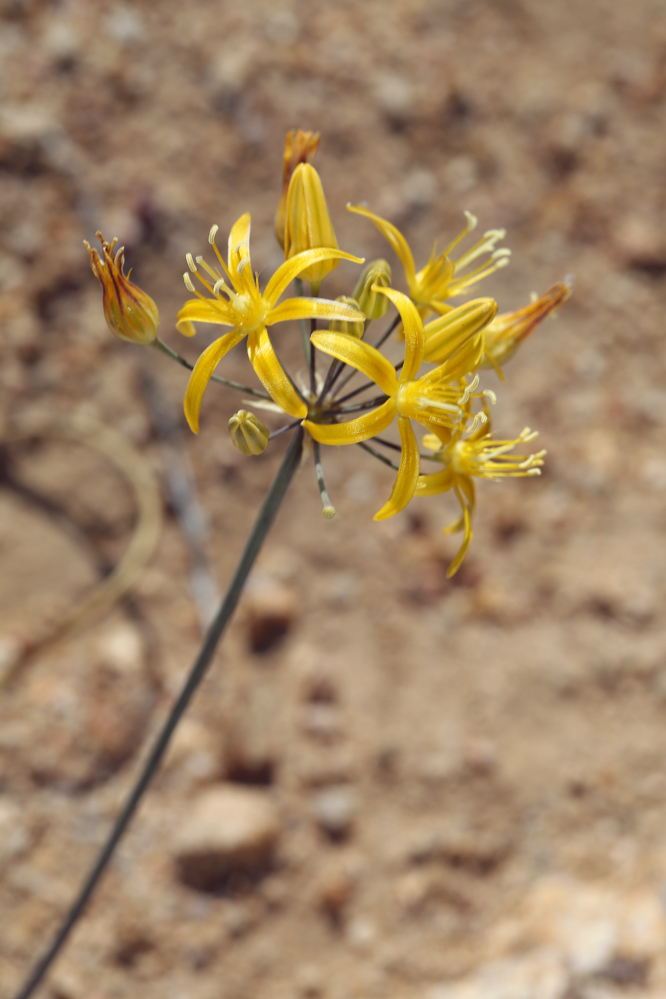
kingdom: Plantae
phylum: Tracheophyta
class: Liliopsida
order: Asparagales
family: Asparagaceae
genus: Bloomeria
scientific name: Bloomeria crocea
